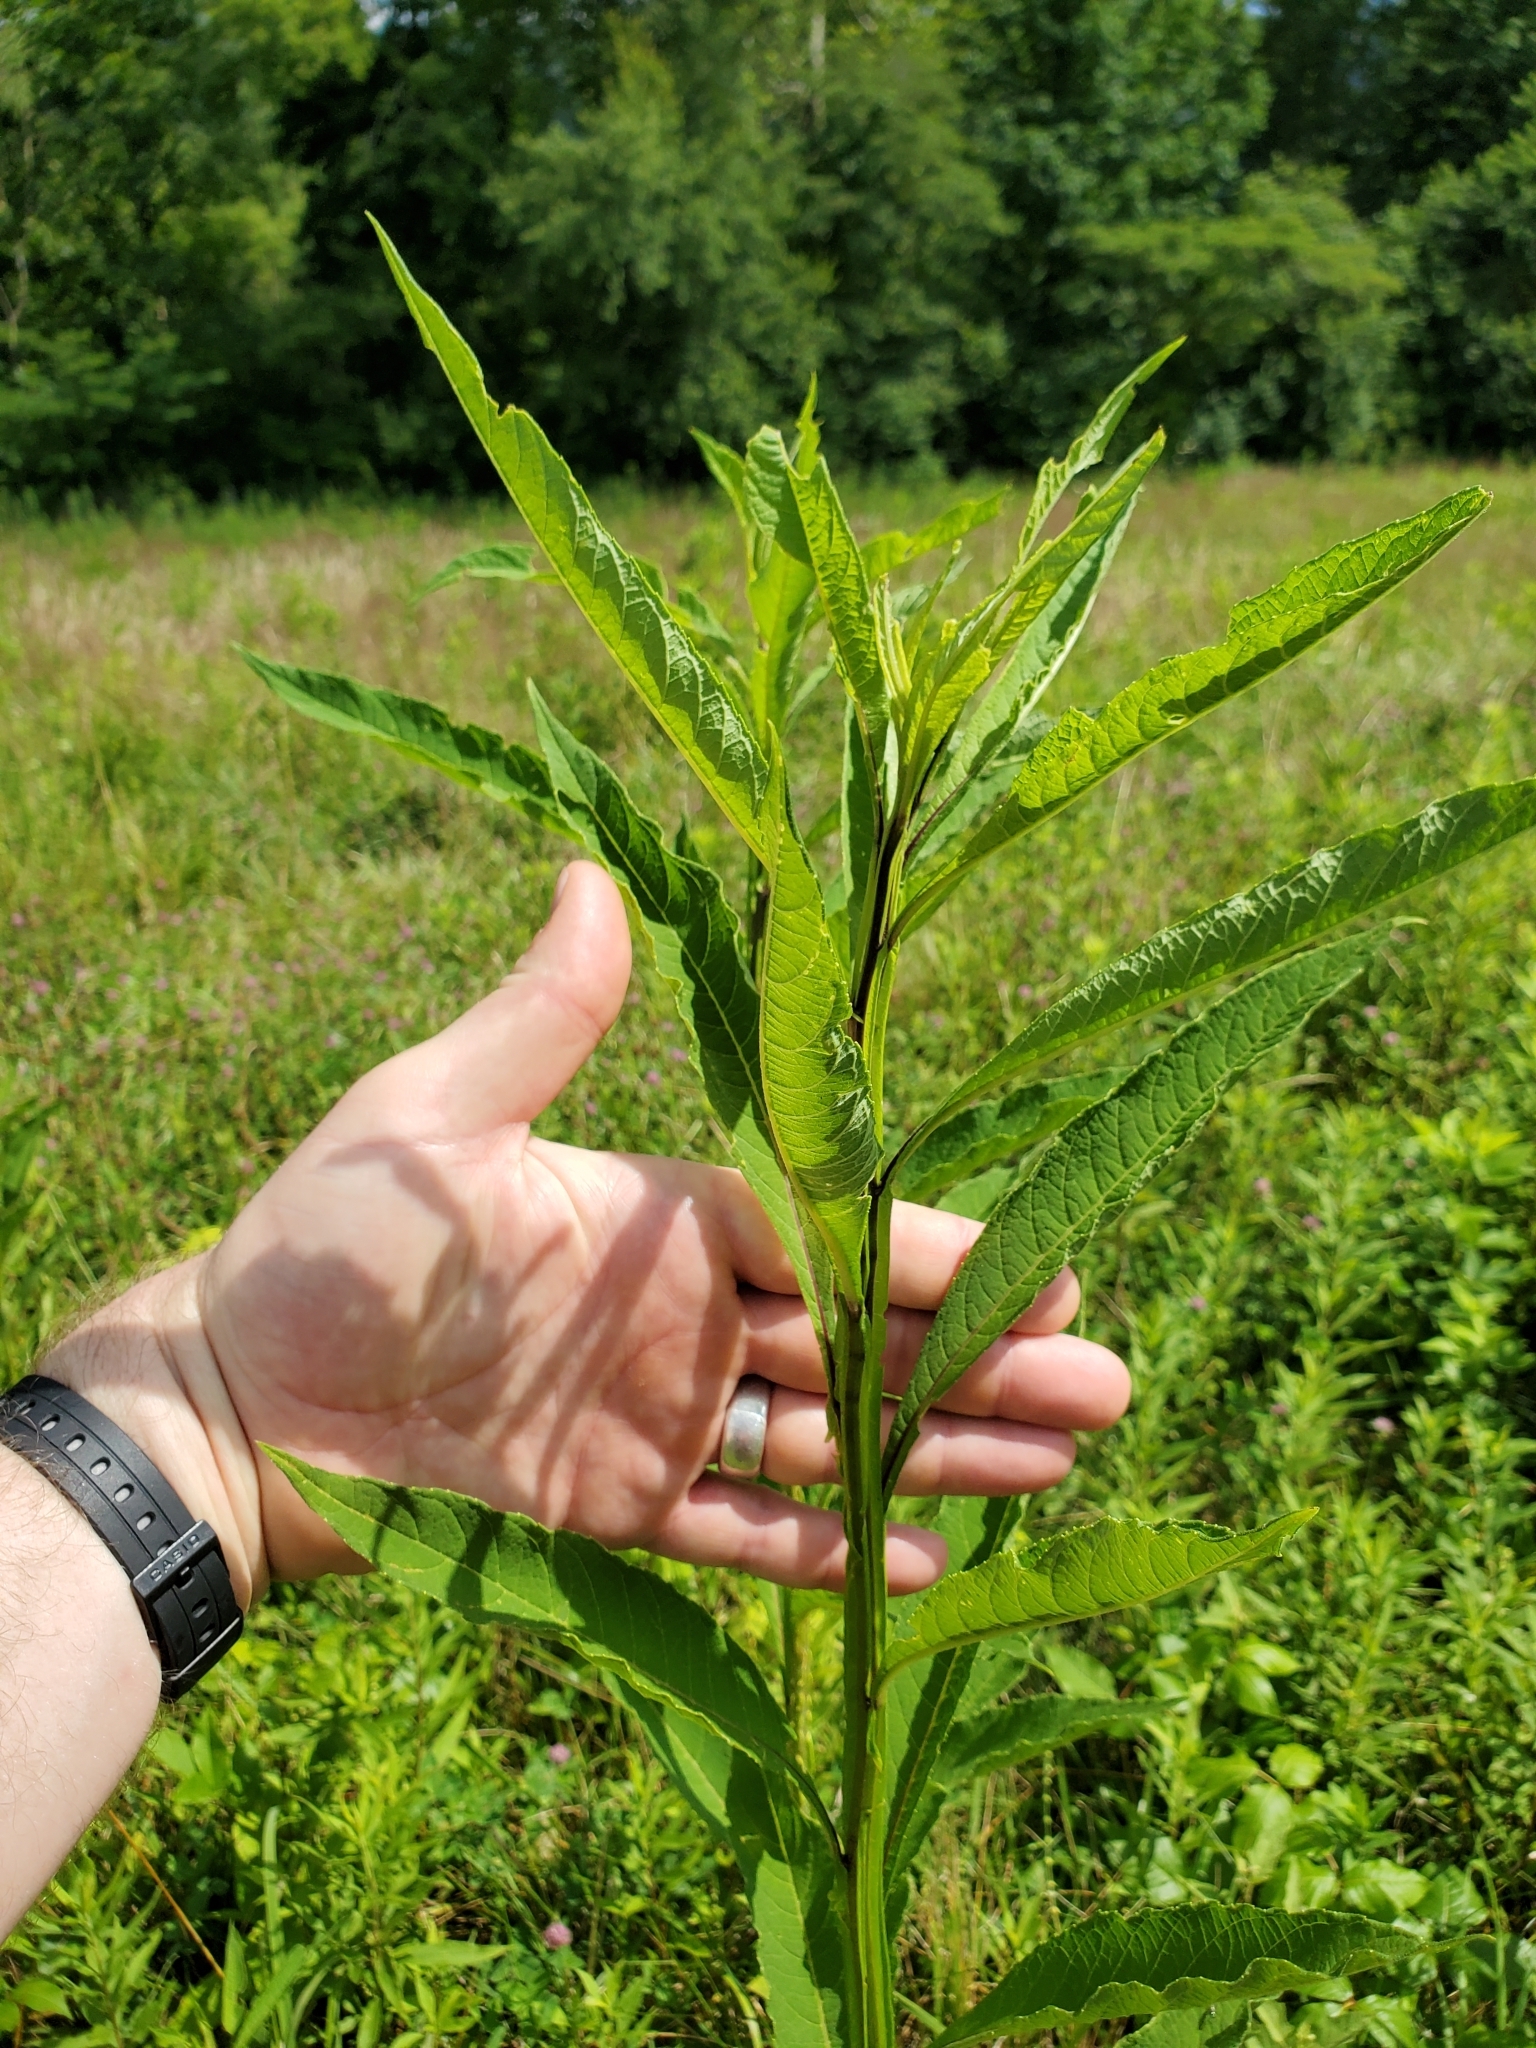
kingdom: Plantae
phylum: Tracheophyta
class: Magnoliopsida
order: Asterales
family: Asteraceae
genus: Verbesina
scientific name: Verbesina alternifolia
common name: Wingstem
